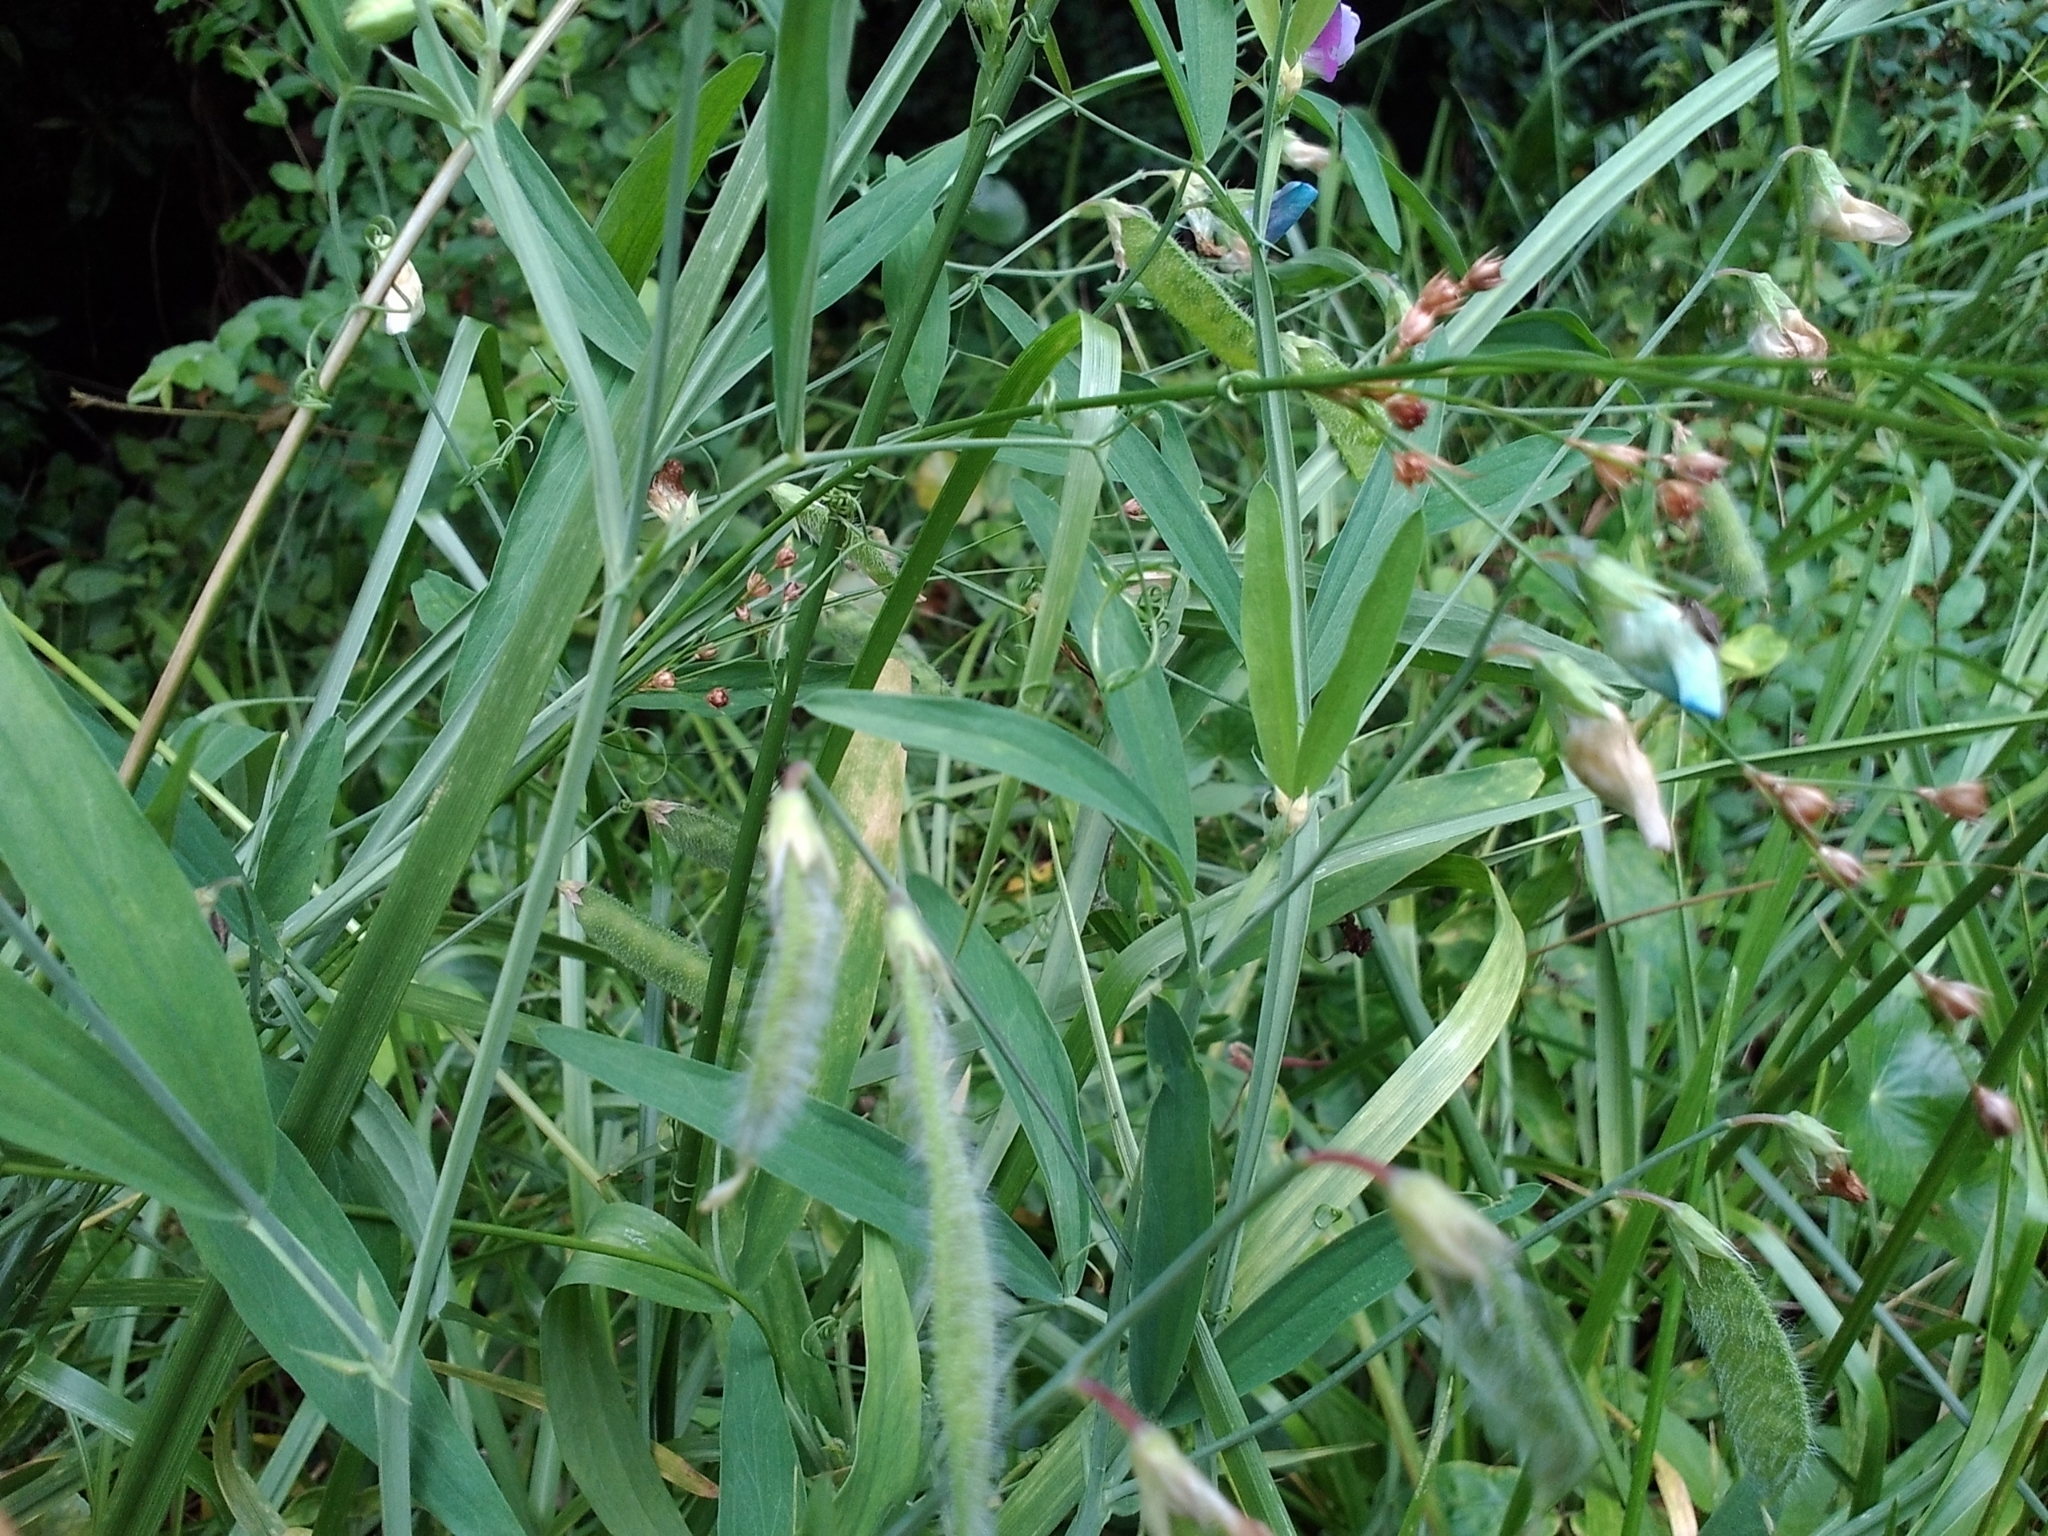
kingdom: Plantae
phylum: Tracheophyta
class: Magnoliopsida
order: Fabales
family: Fabaceae
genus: Lathyrus
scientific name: Lathyrus hirsutus
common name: Hairy vetchling
